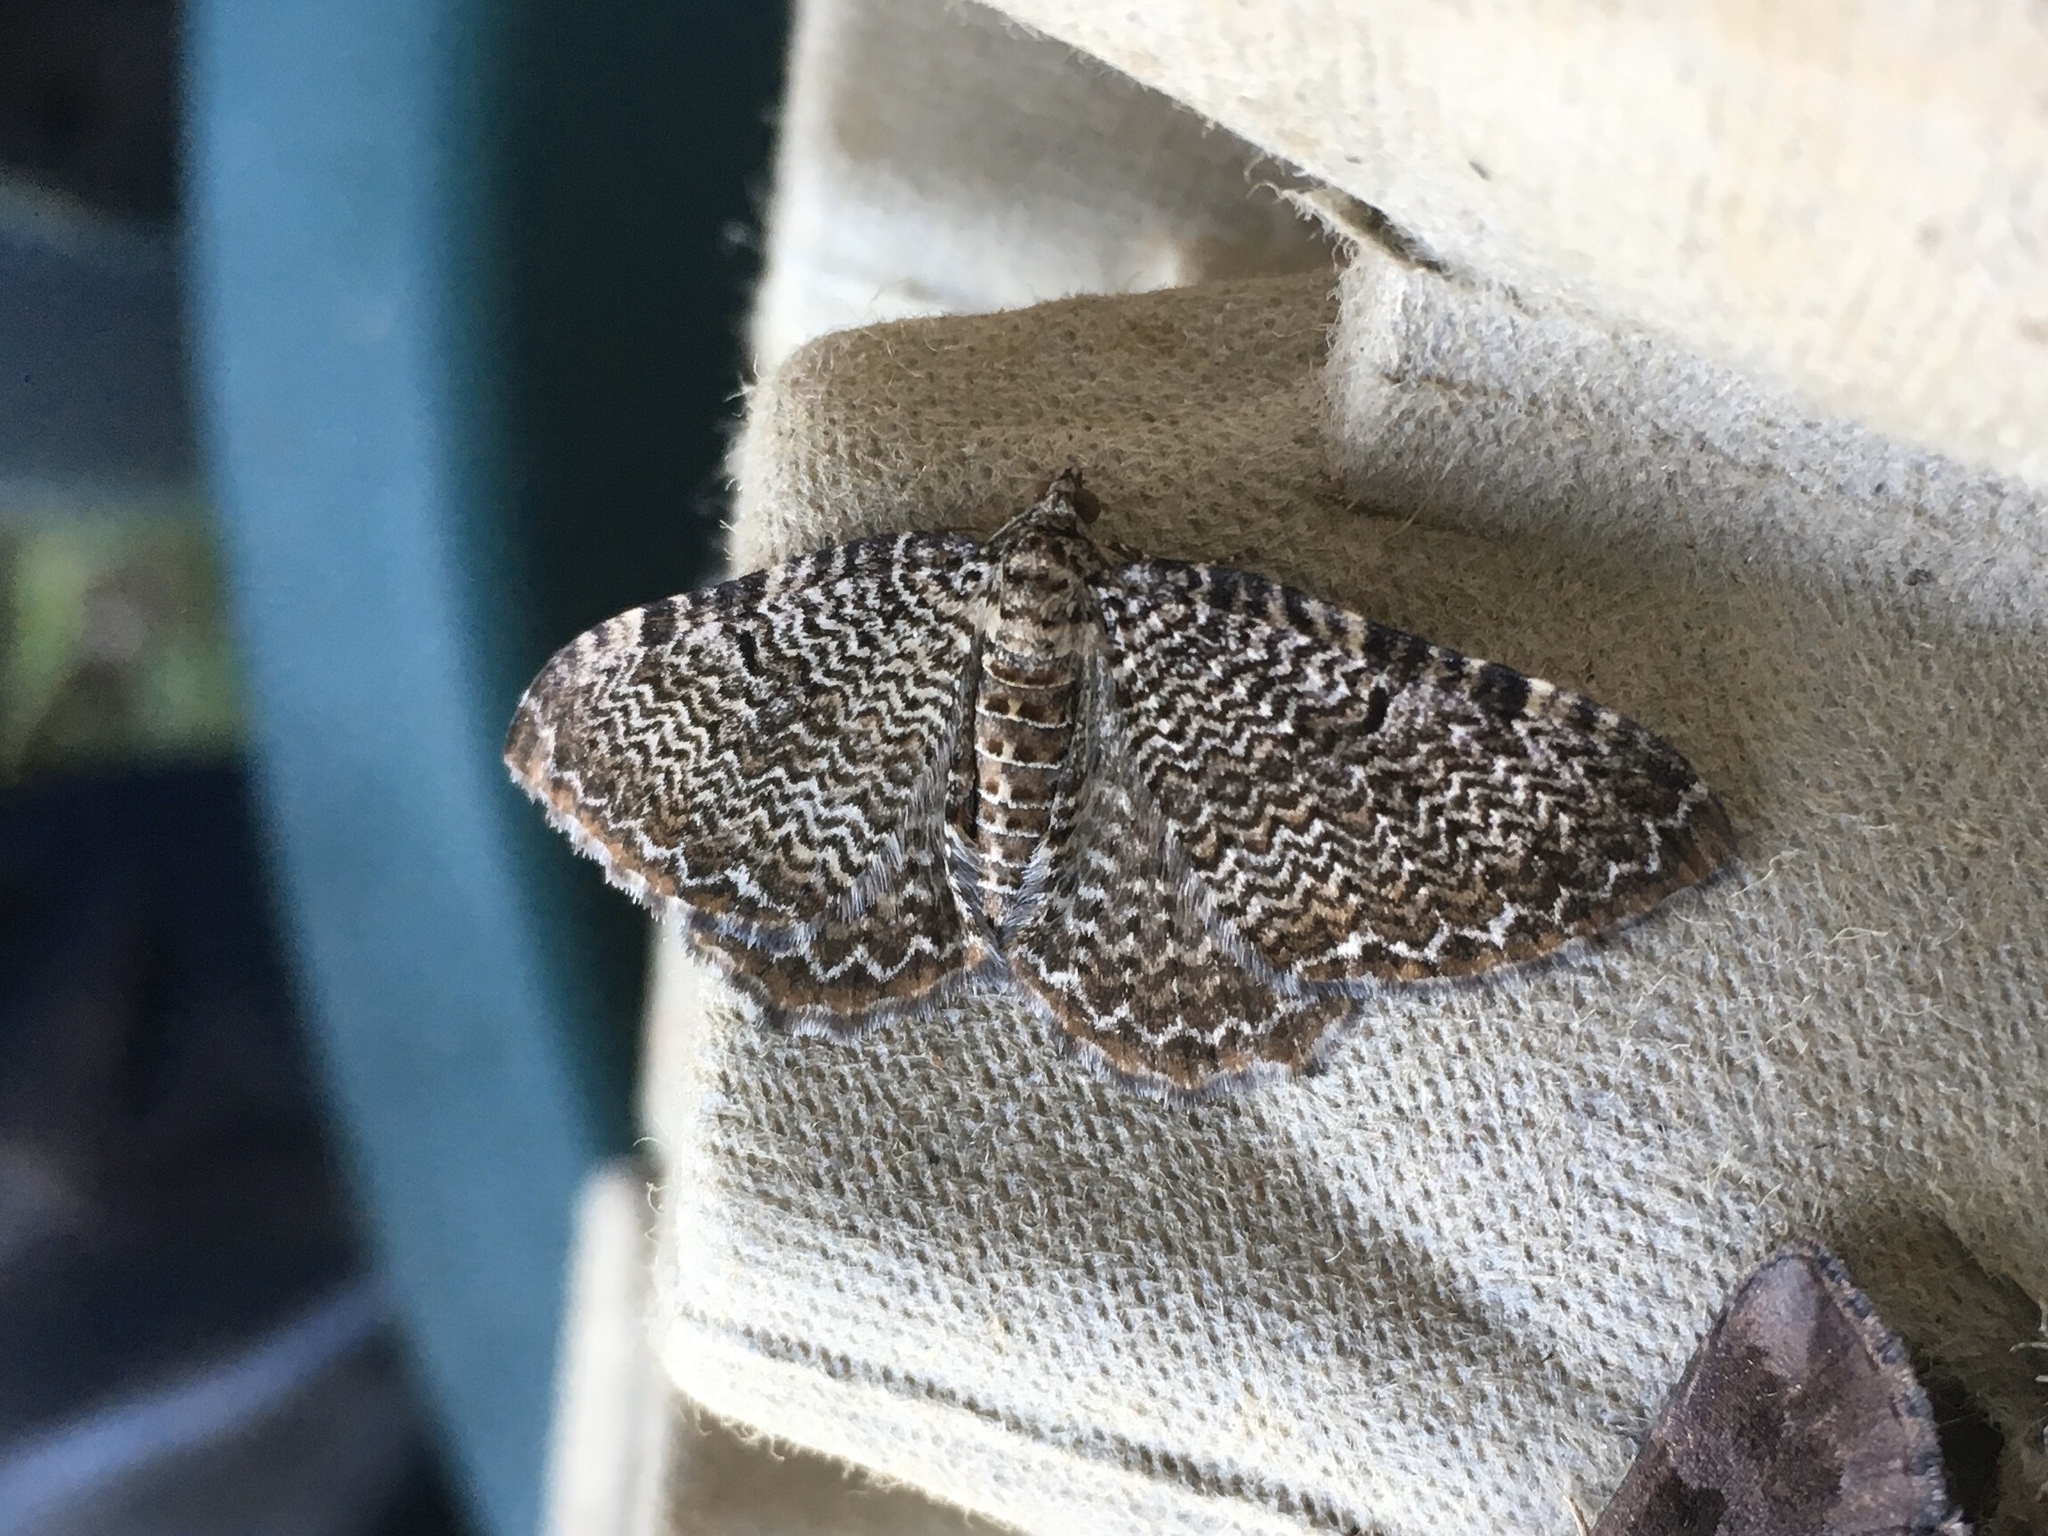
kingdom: Animalia
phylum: Arthropoda
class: Insecta
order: Lepidoptera
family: Geometridae
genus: Rheumaptera
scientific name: Rheumaptera
